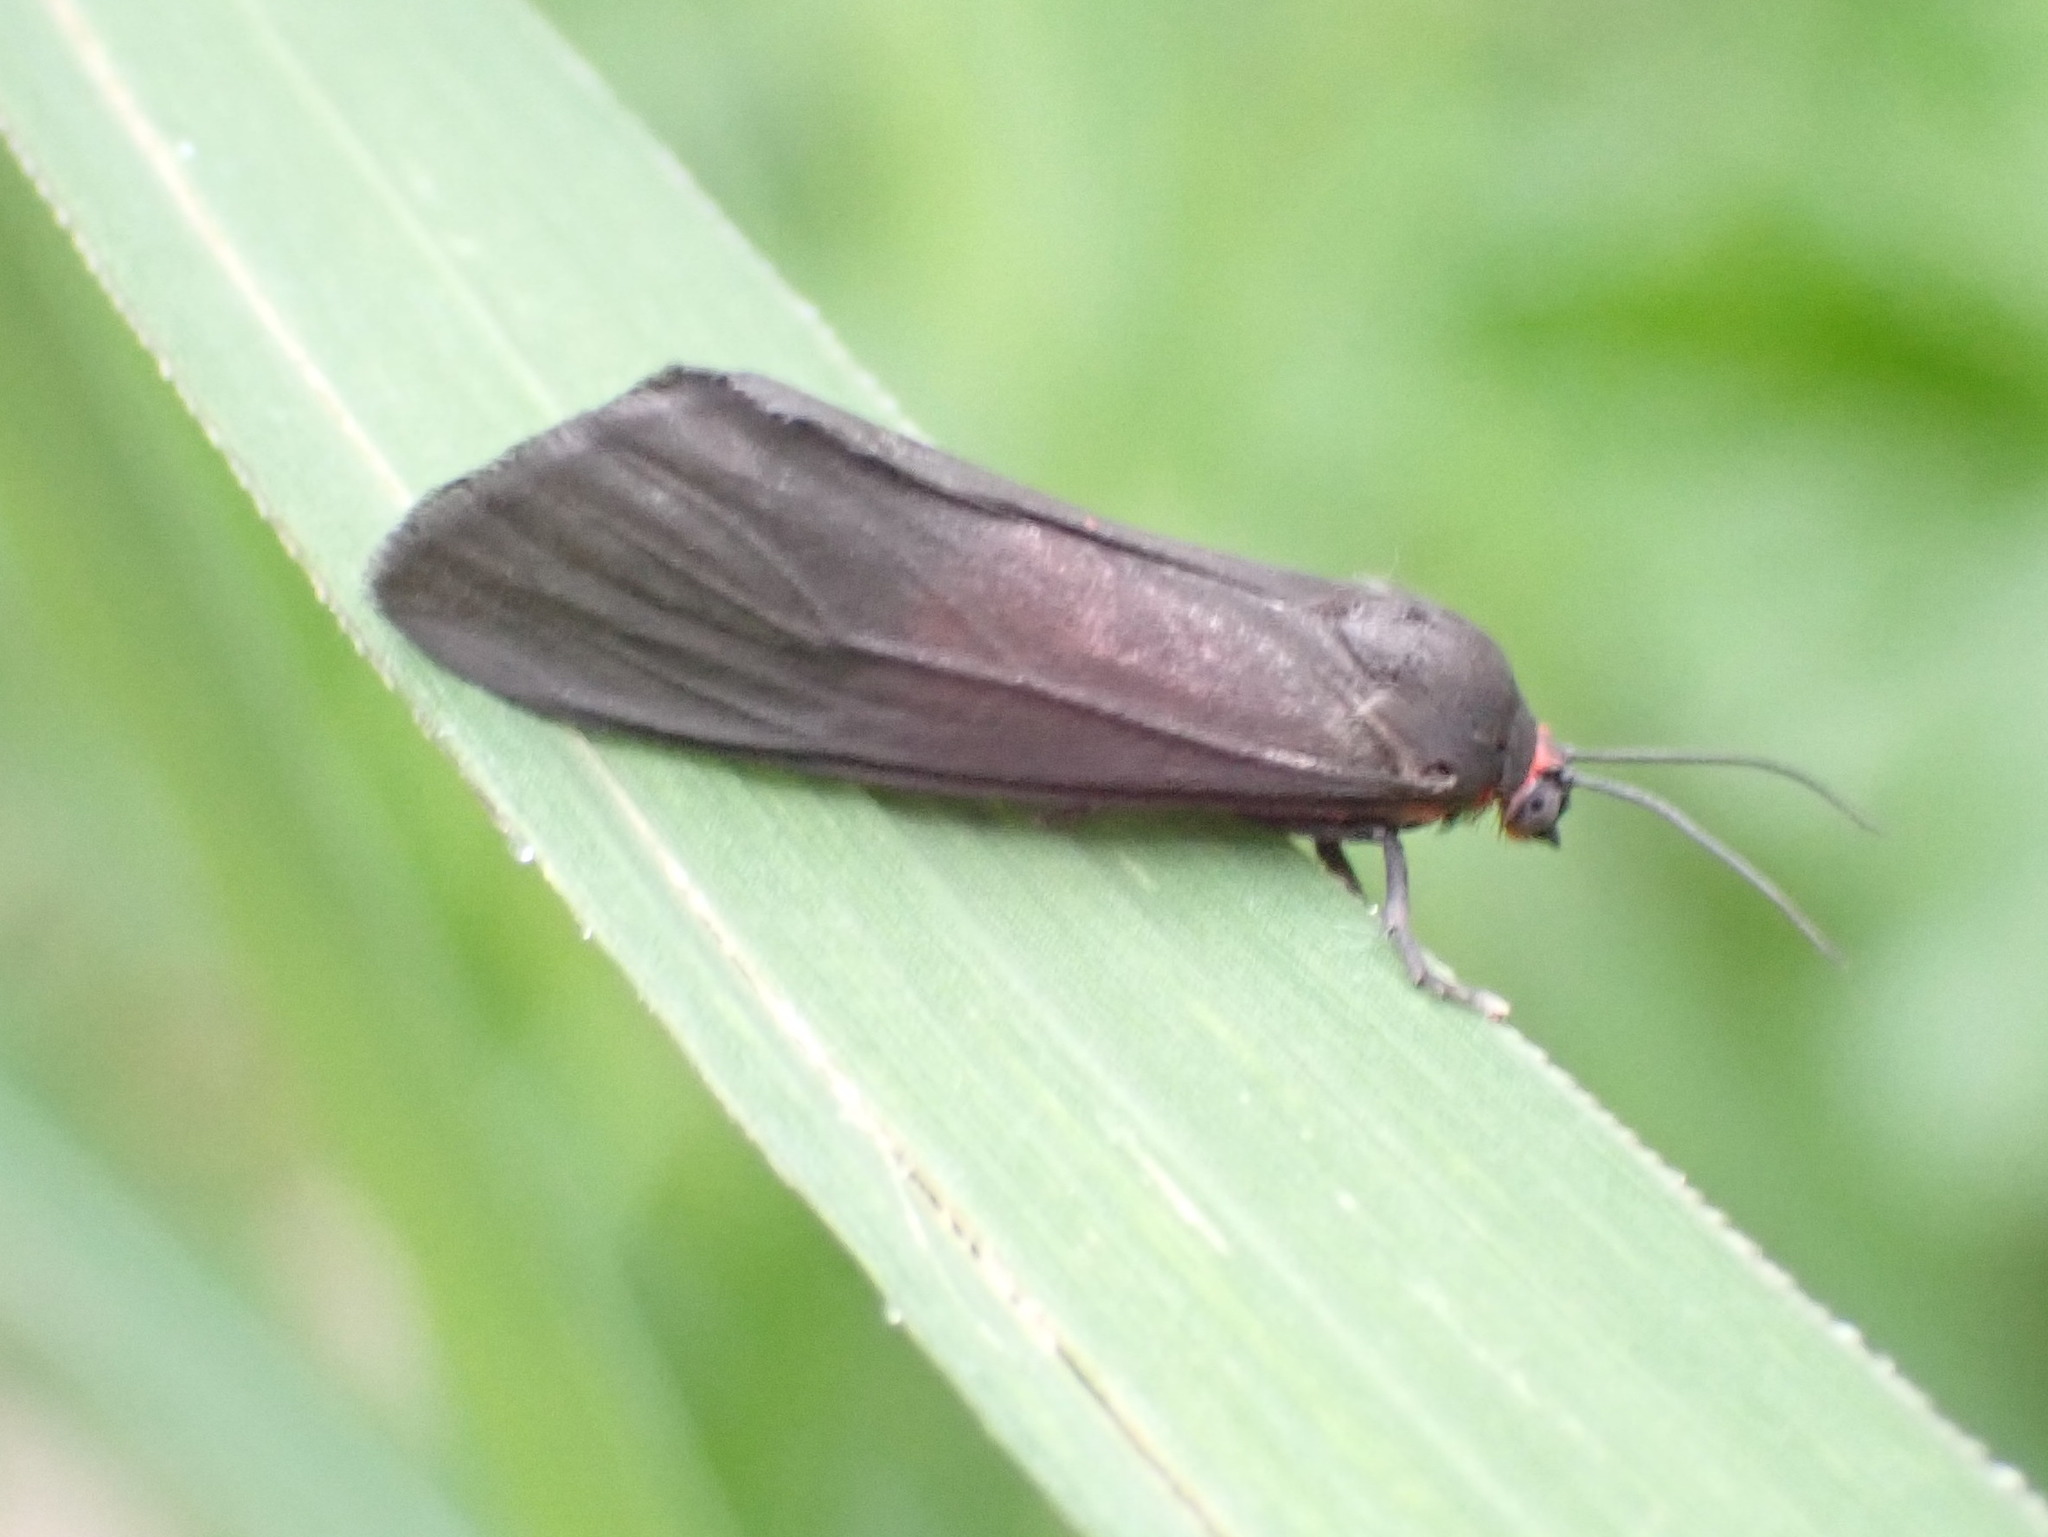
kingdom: Animalia
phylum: Arthropoda
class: Insecta
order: Lepidoptera
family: Erebidae
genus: Virbia
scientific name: Virbia laeta
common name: Joyful holomelina moth
